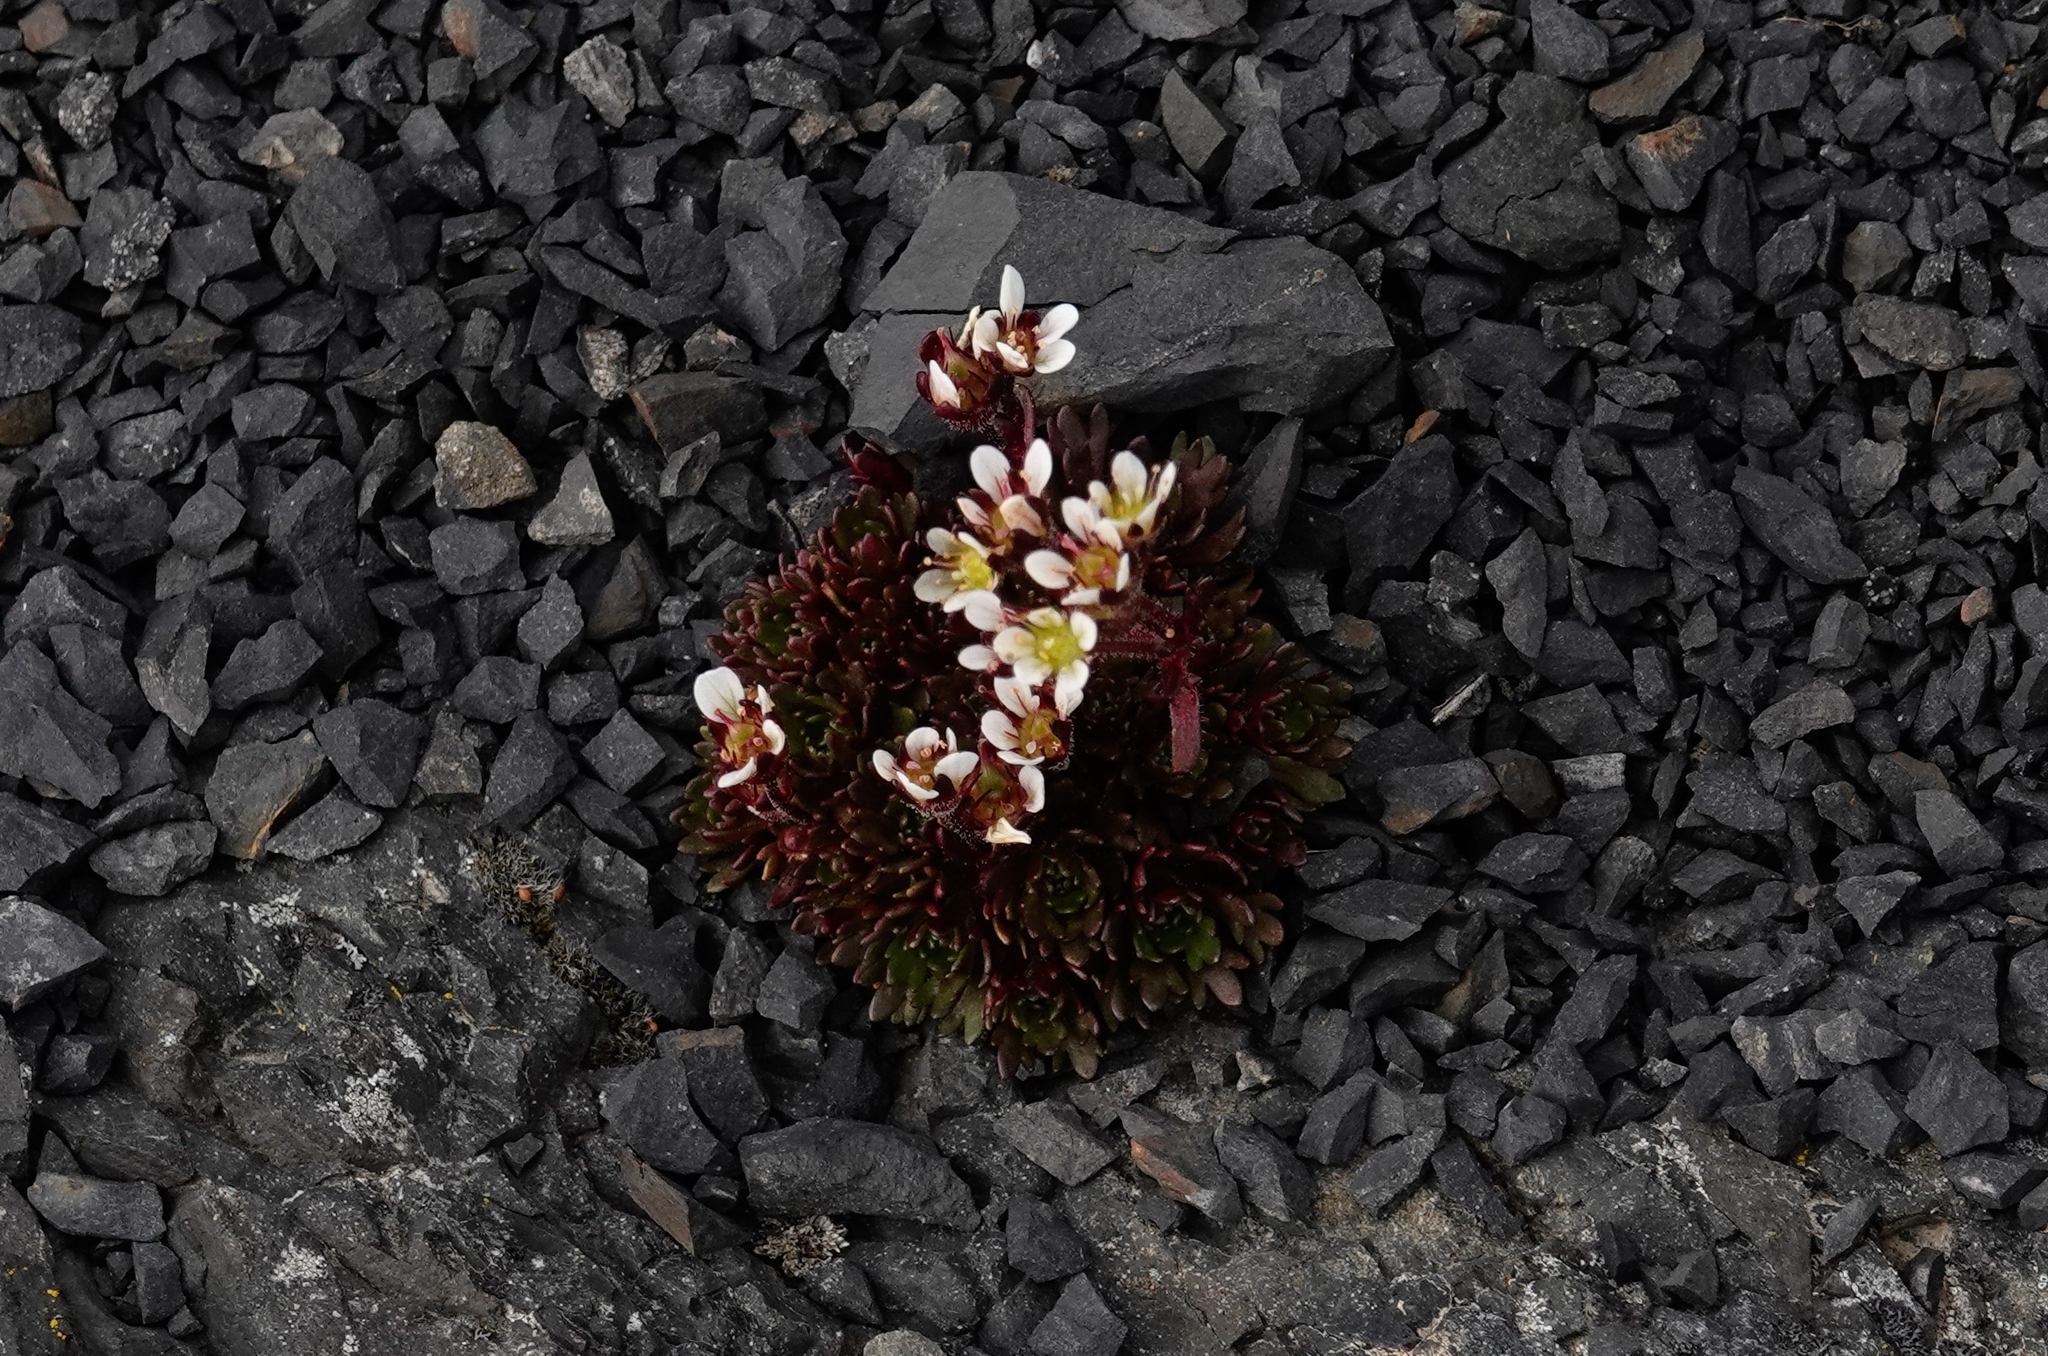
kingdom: Plantae
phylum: Tracheophyta
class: Magnoliopsida
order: Saxifragales
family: Saxifragaceae
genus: Saxifraga
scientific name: Saxifraga magellanica
